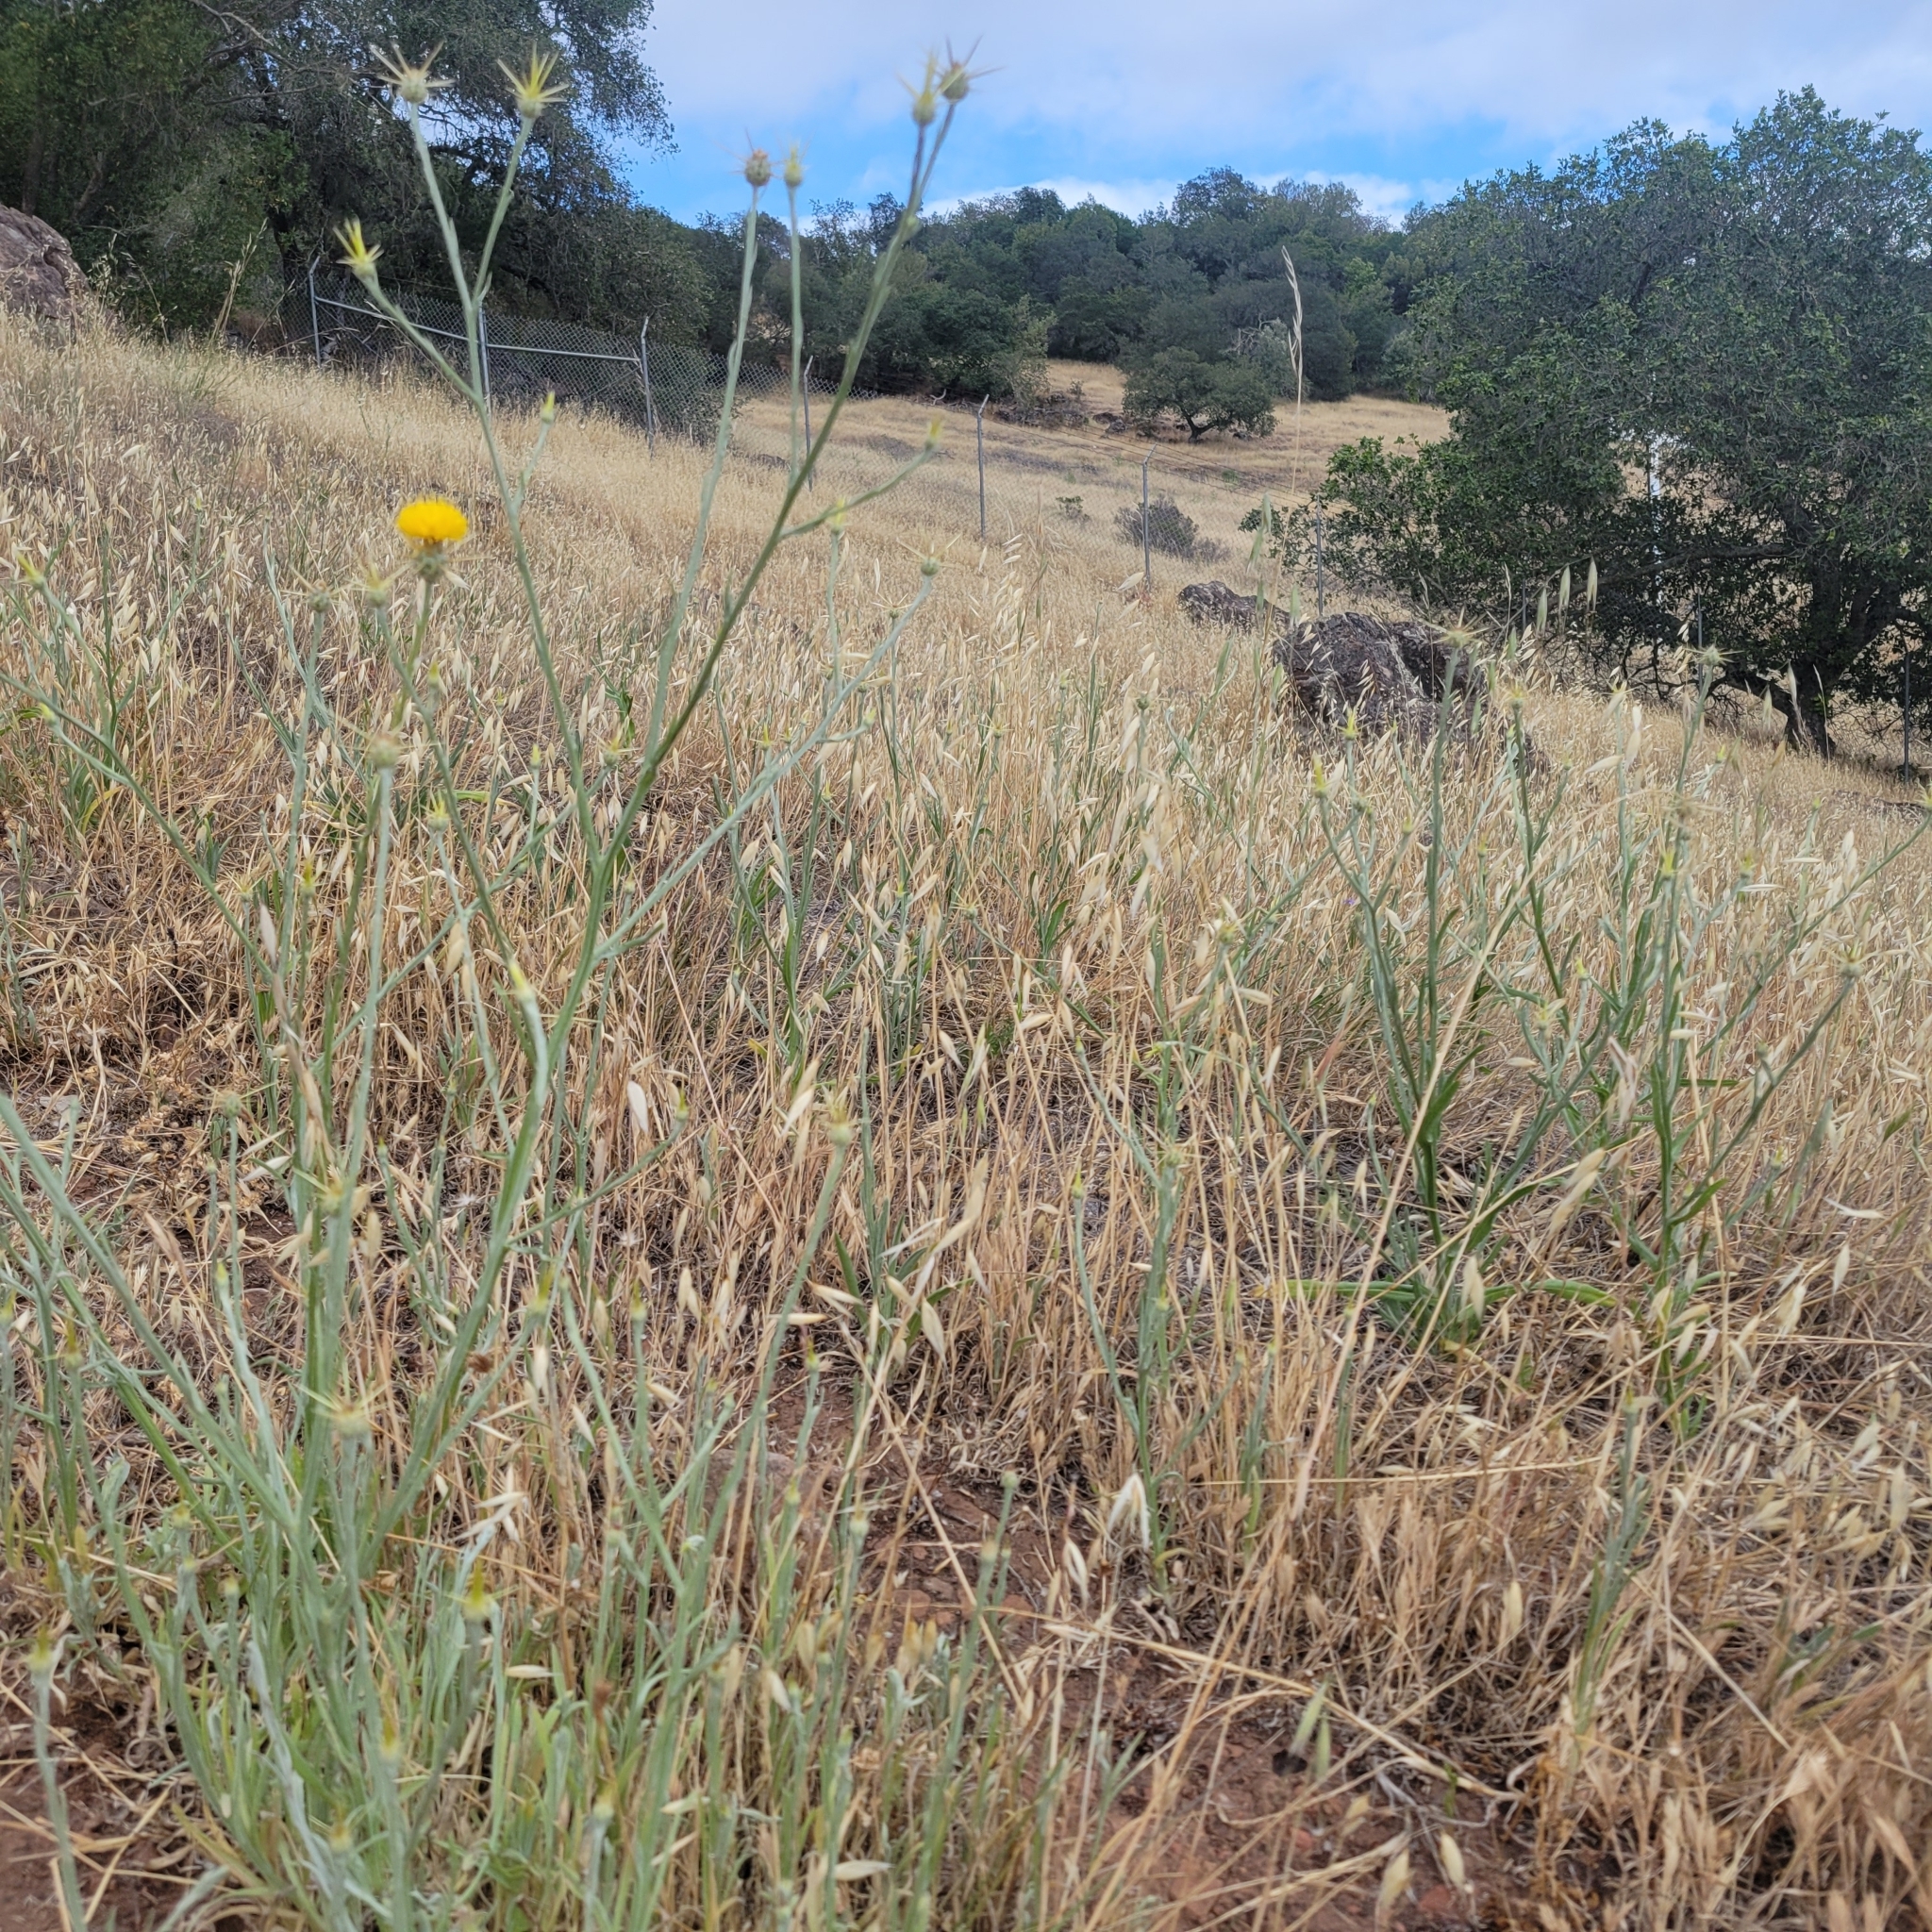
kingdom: Plantae
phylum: Tracheophyta
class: Magnoliopsida
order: Asterales
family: Asteraceae
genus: Centaurea
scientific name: Centaurea solstitialis
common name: Yellow star-thistle
